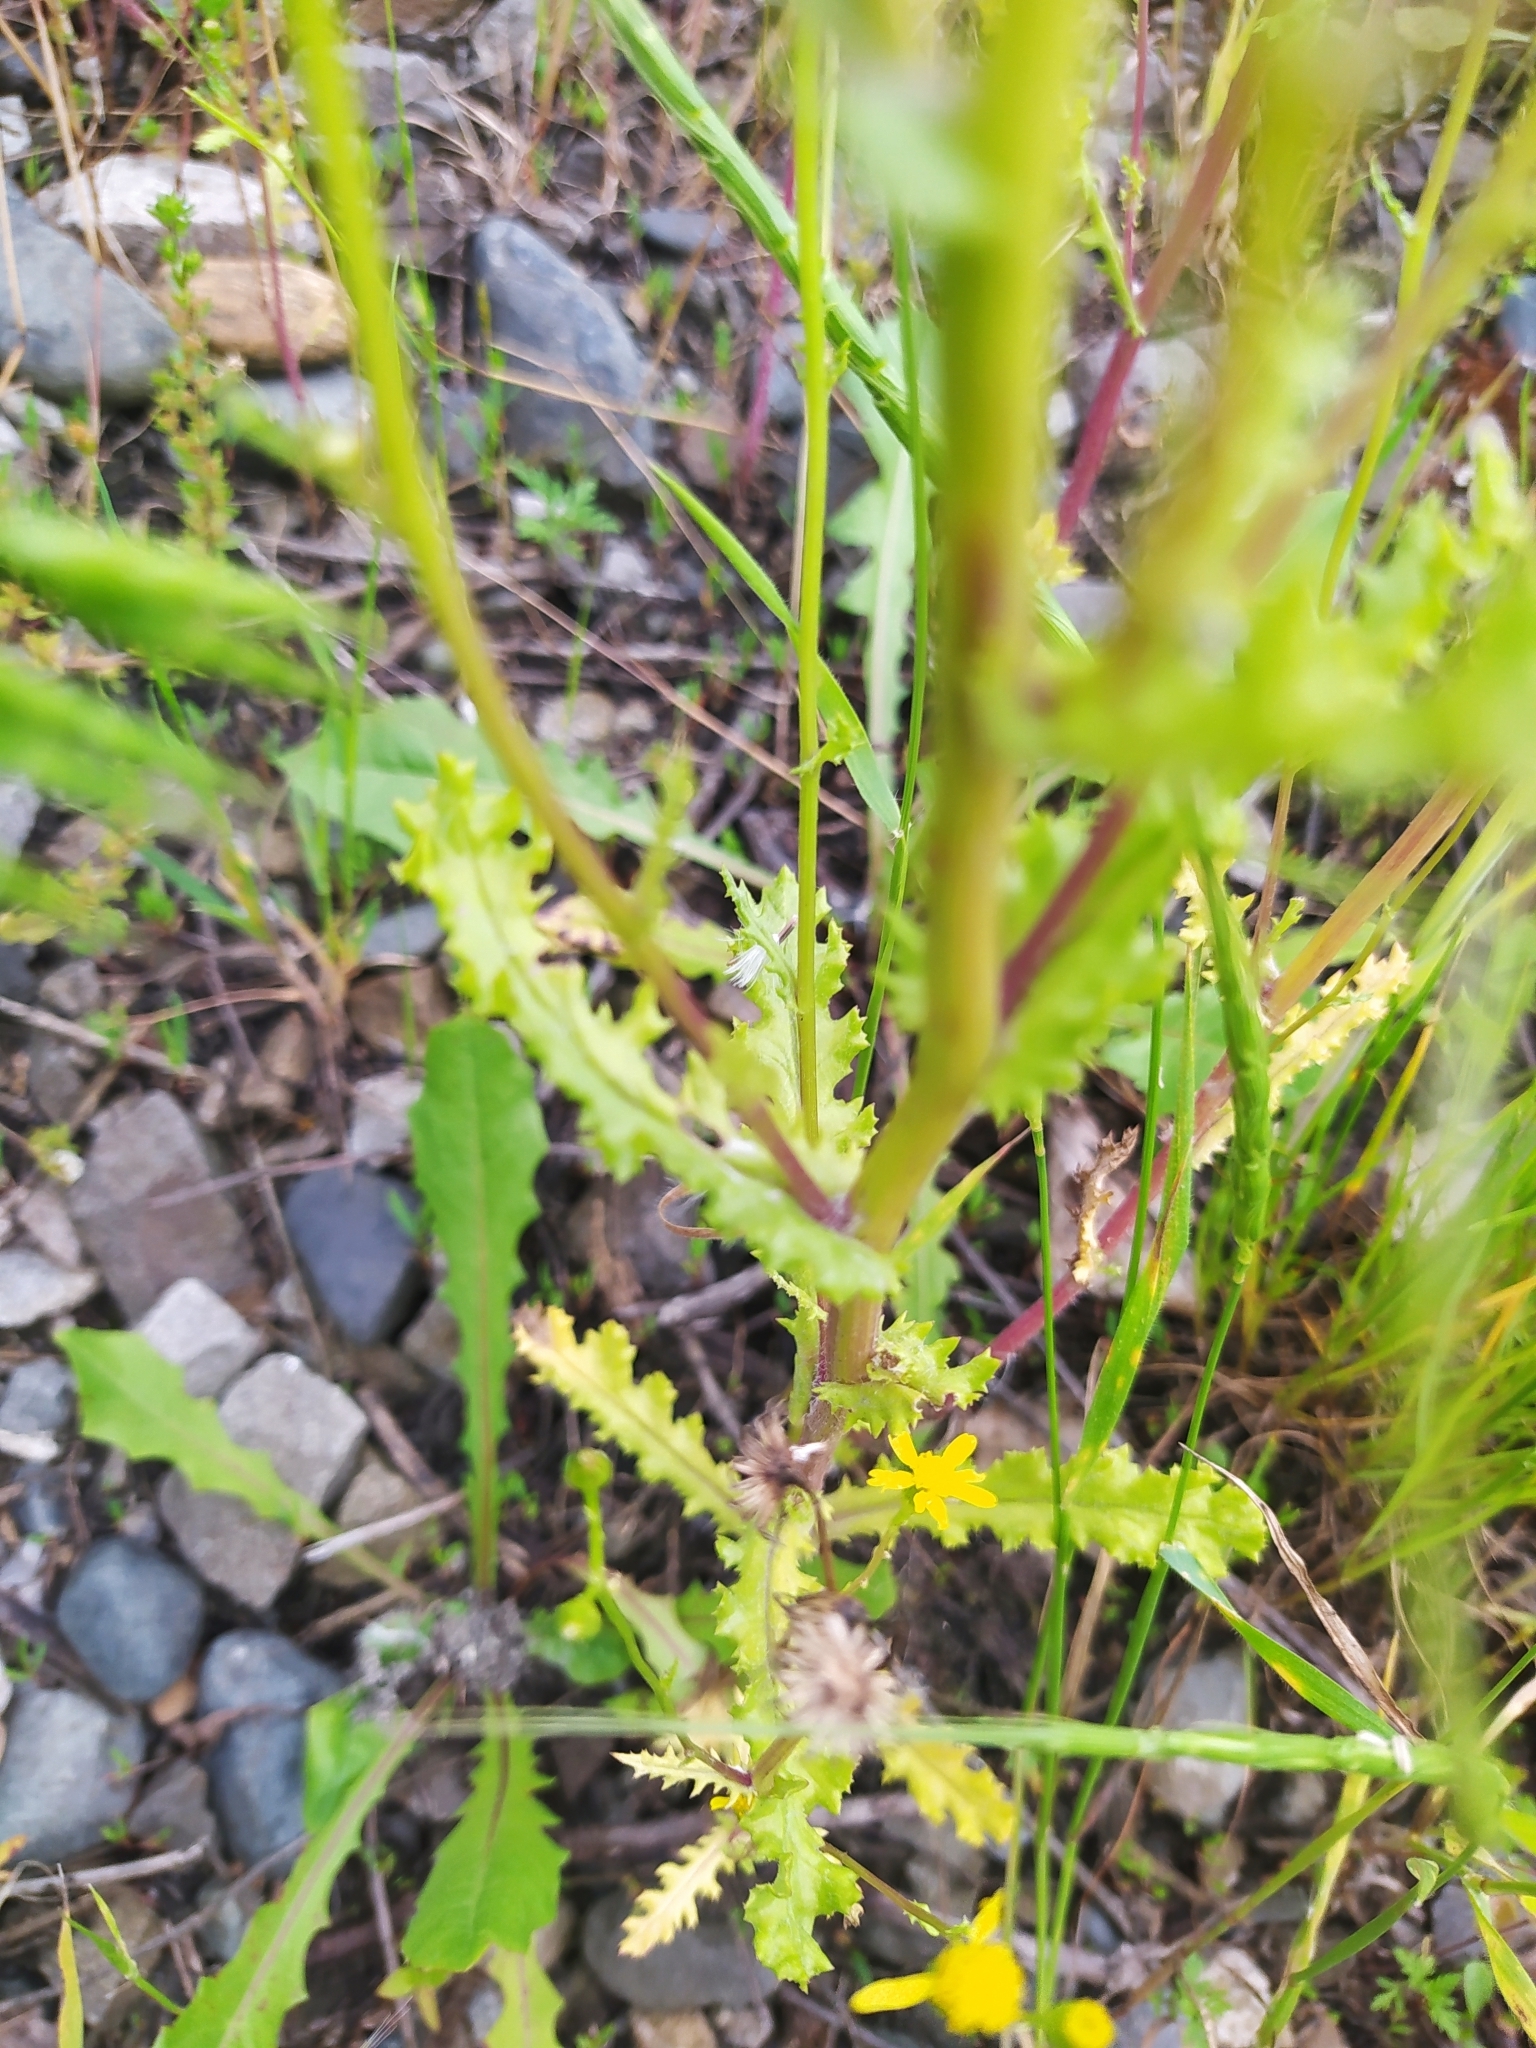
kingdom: Plantae
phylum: Tracheophyta
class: Magnoliopsida
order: Asterales
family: Asteraceae
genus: Senecio
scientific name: Senecio vernalis
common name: Eastern groundsel
